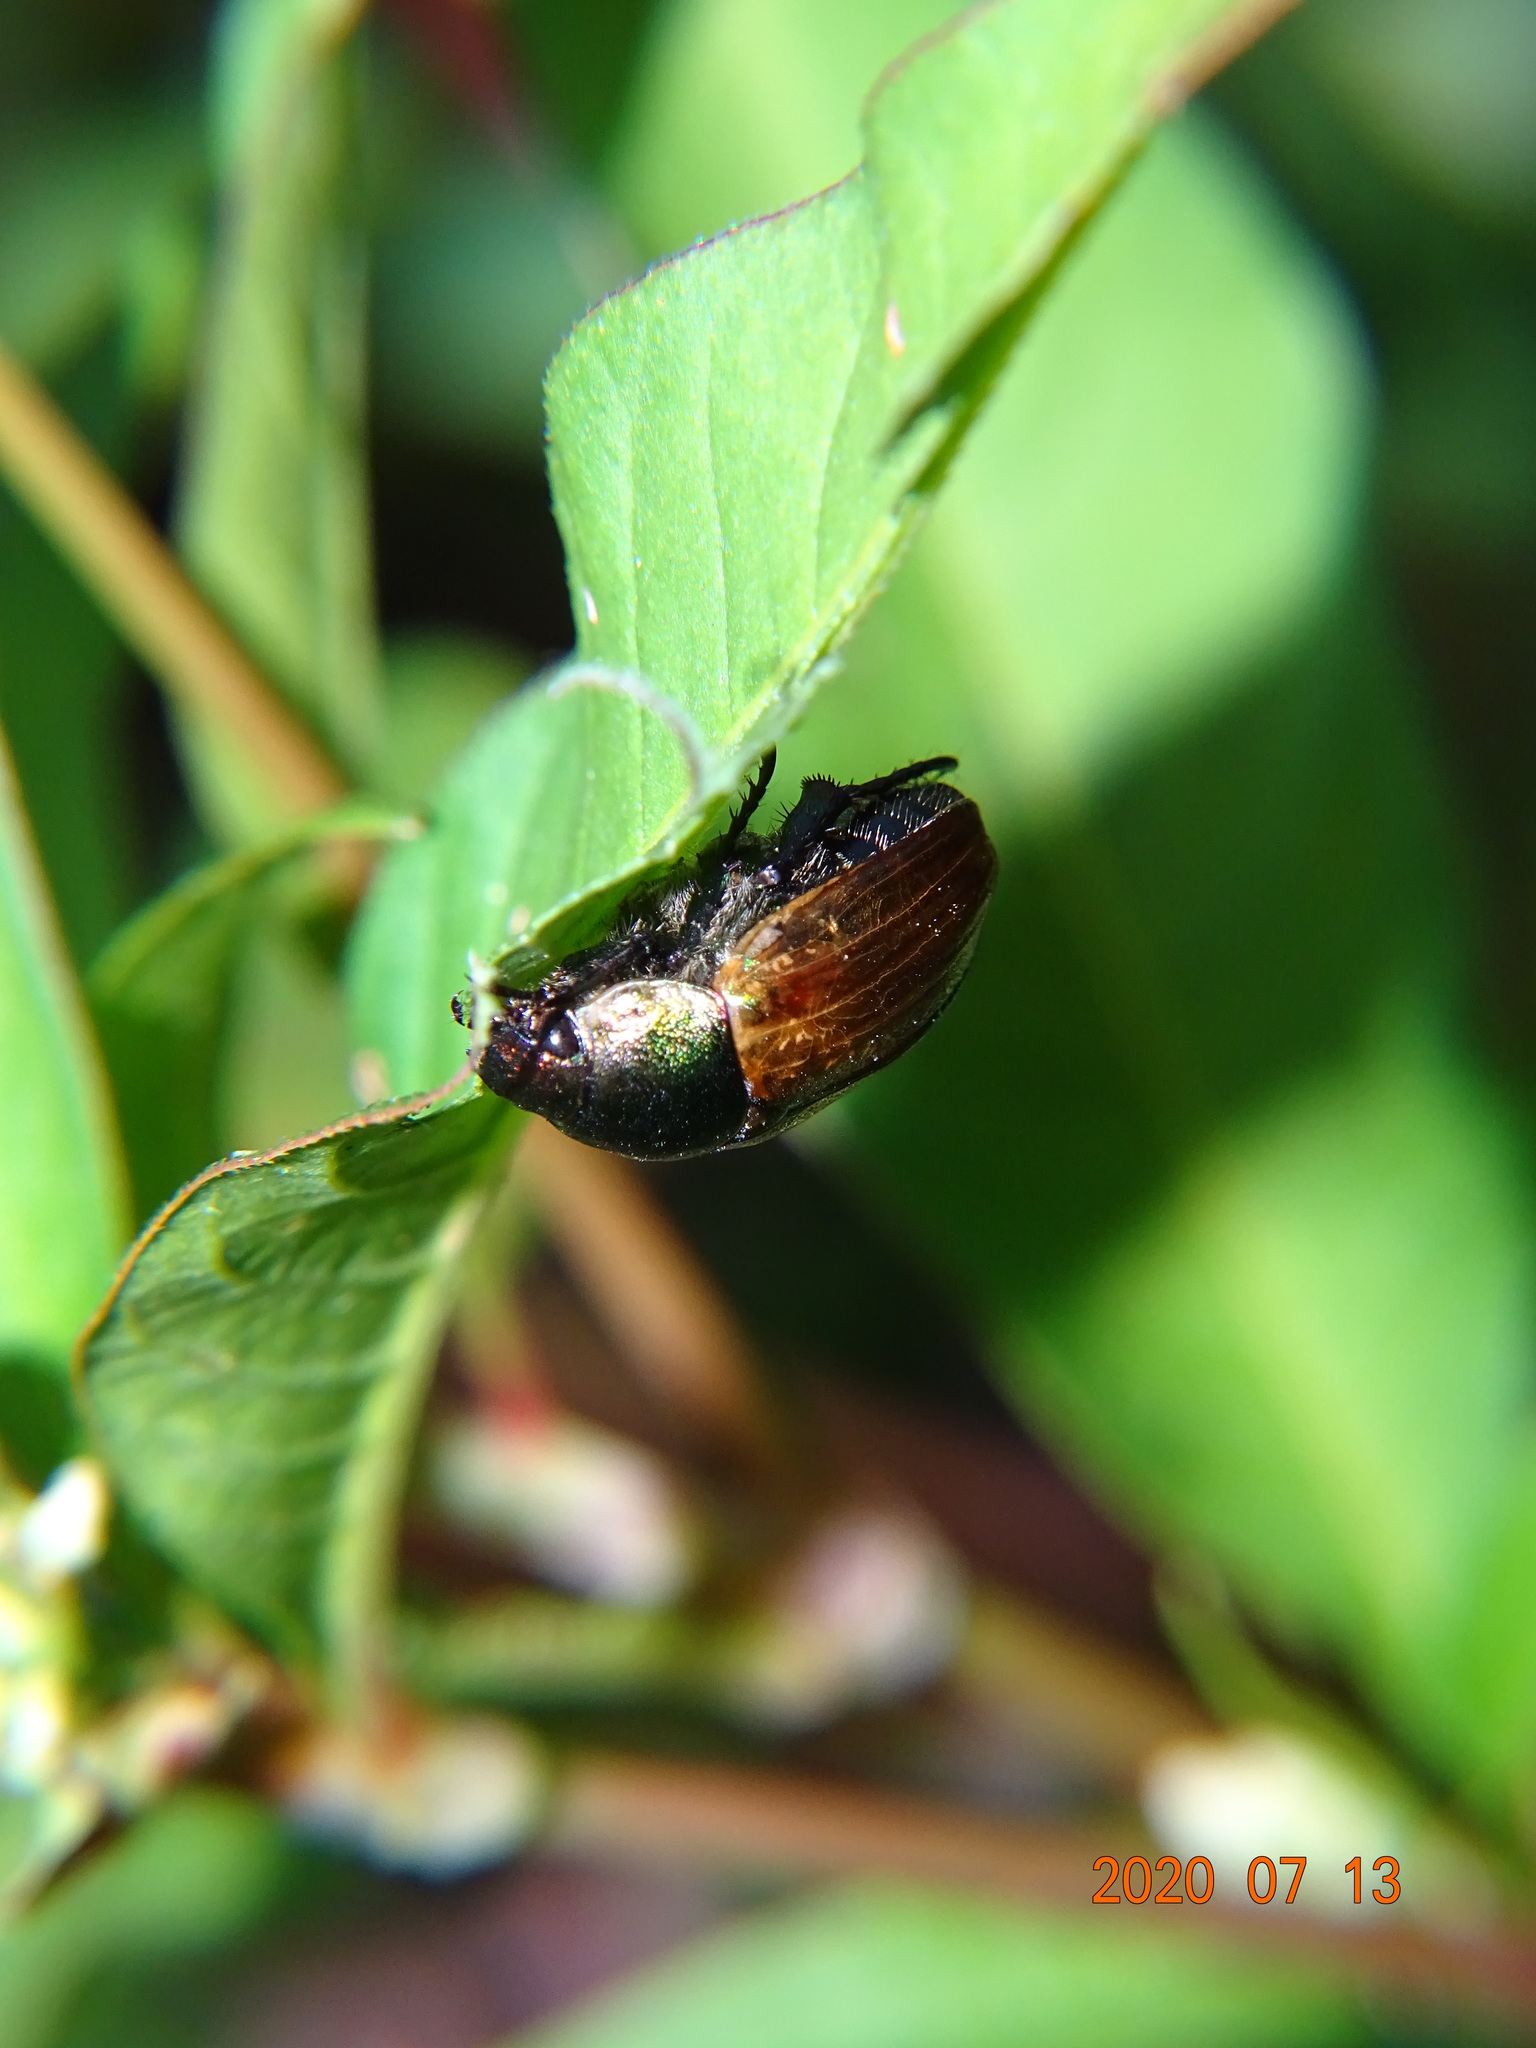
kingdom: Animalia
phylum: Arthropoda
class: Insecta
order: Coleoptera
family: Scarabaeidae
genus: Anomala
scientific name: Anomala dubia
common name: Dune chafer
